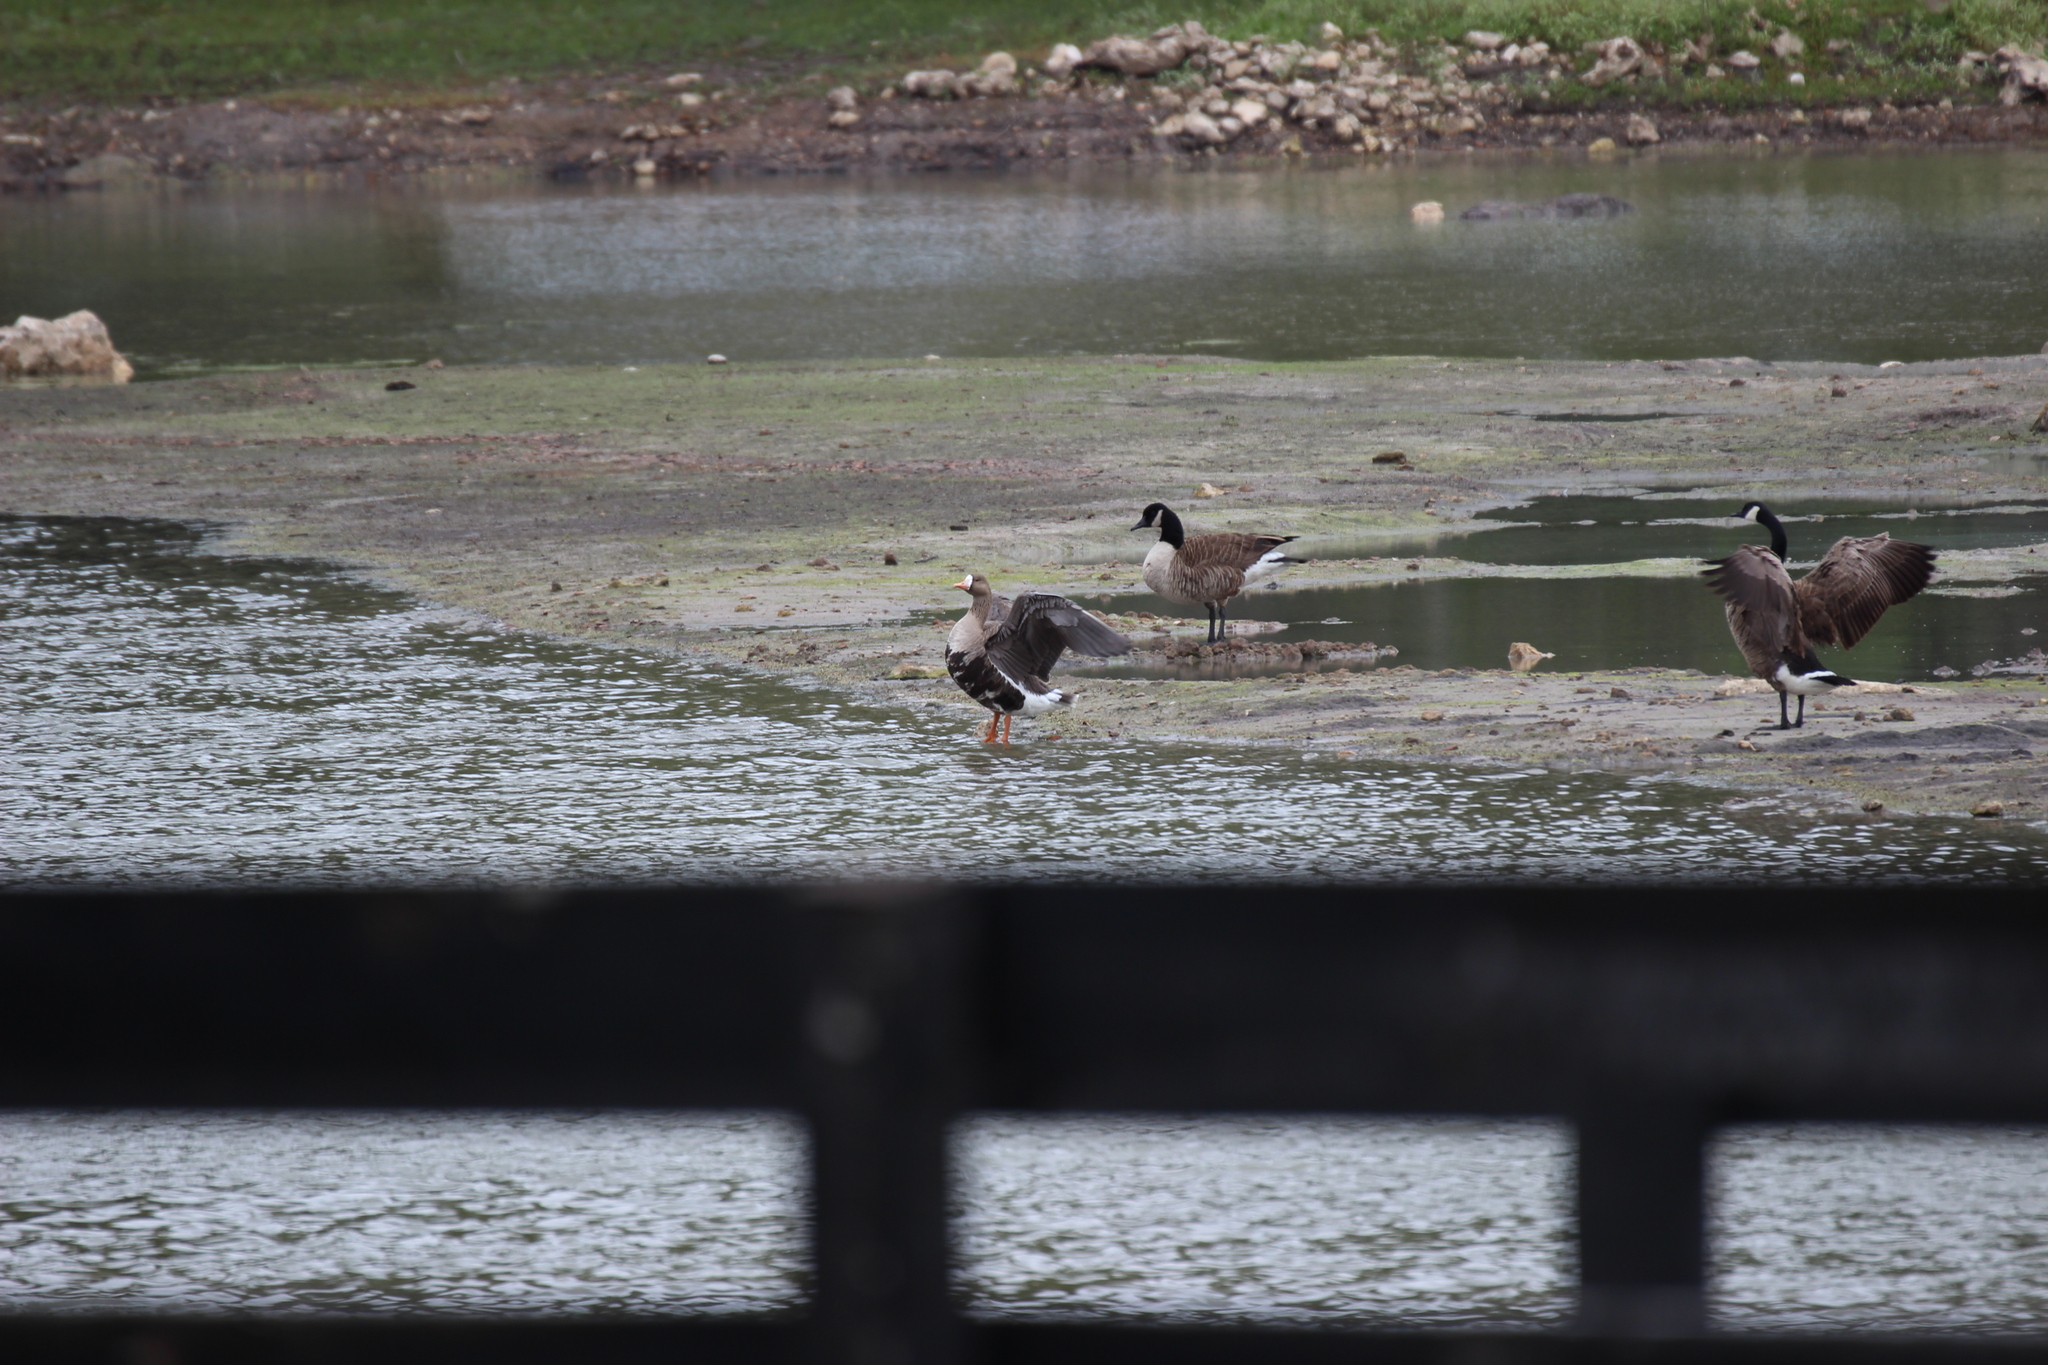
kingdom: Animalia
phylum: Chordata
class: Aves
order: Anseriformes
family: Anatidae
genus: Anser
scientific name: Anser albifrons
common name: Greater white-fronted goose
